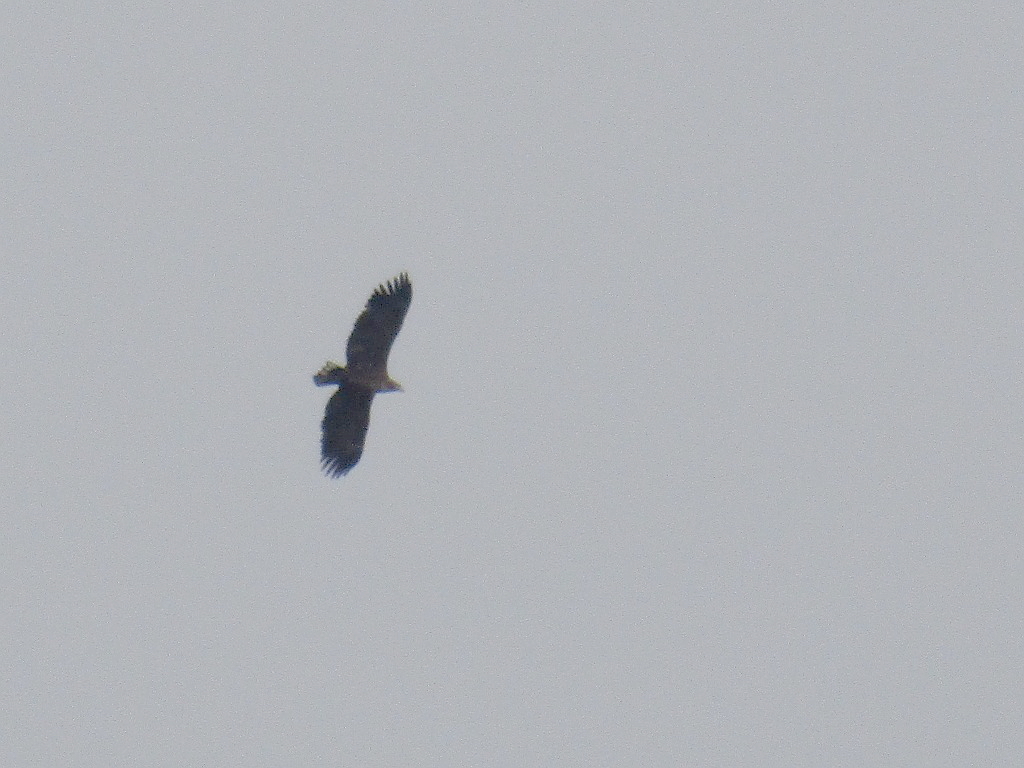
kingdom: Animalia
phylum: Chordata
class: Aves
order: Accipitriformes
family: Accipitridae
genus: Haliaeetus
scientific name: Haliaeetus albicilla
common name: White-tailed eagle
